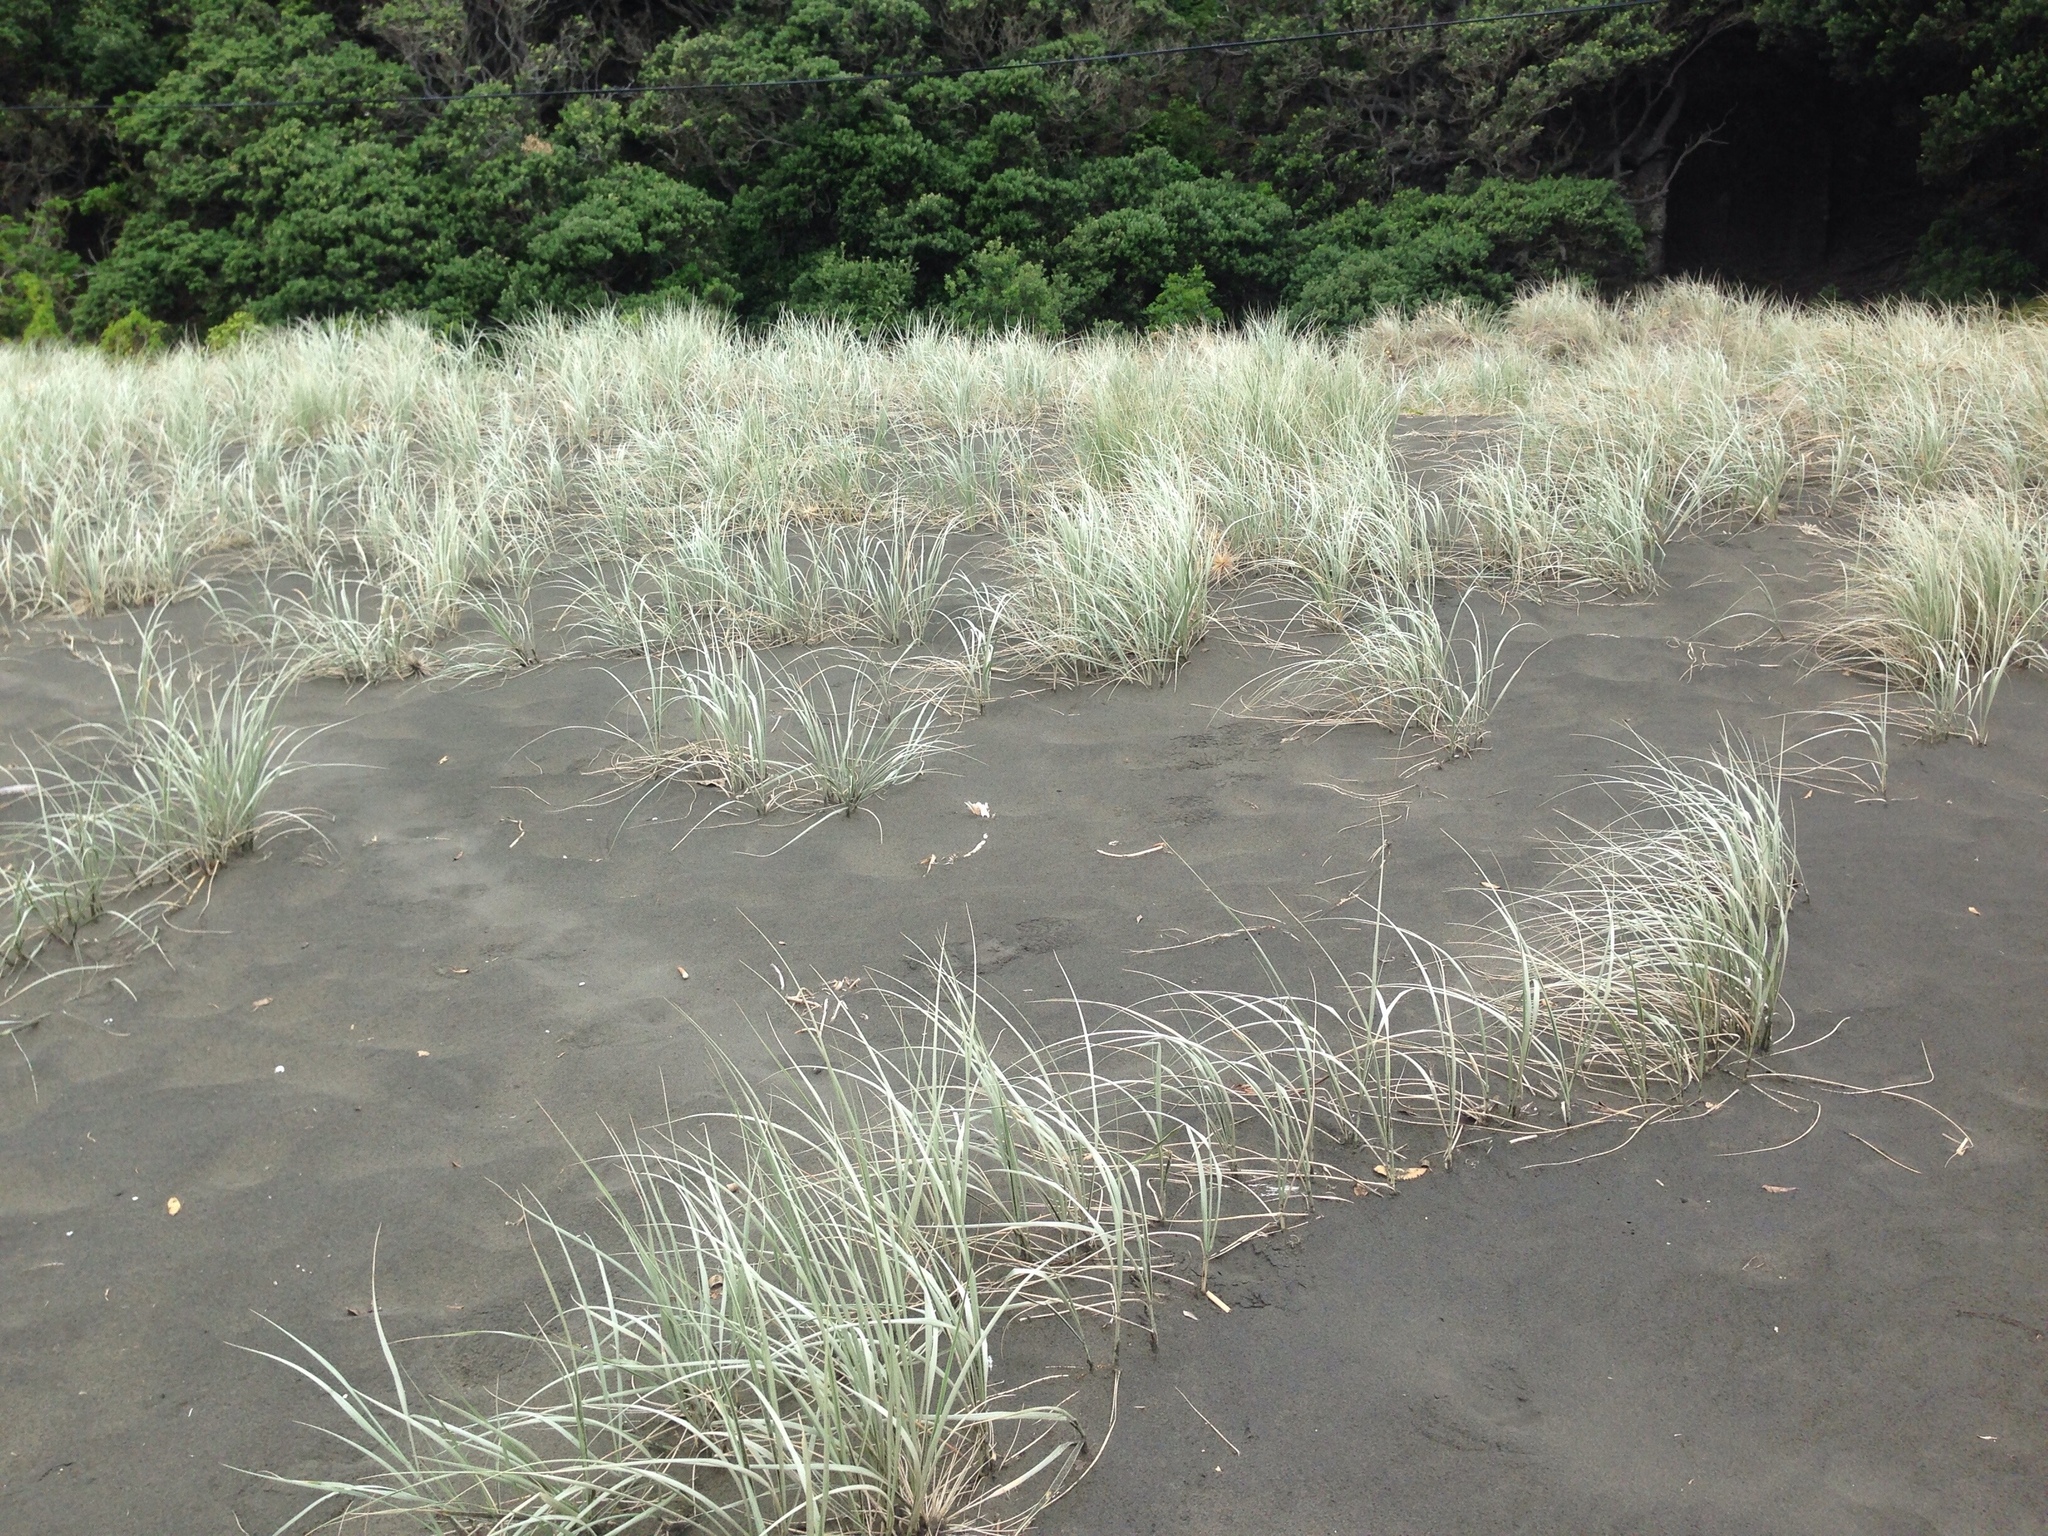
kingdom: Plantae
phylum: Tracheophyta
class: Liliopsida
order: Poales
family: Poaceae
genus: Spinifex
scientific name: Spinifex sericeus
